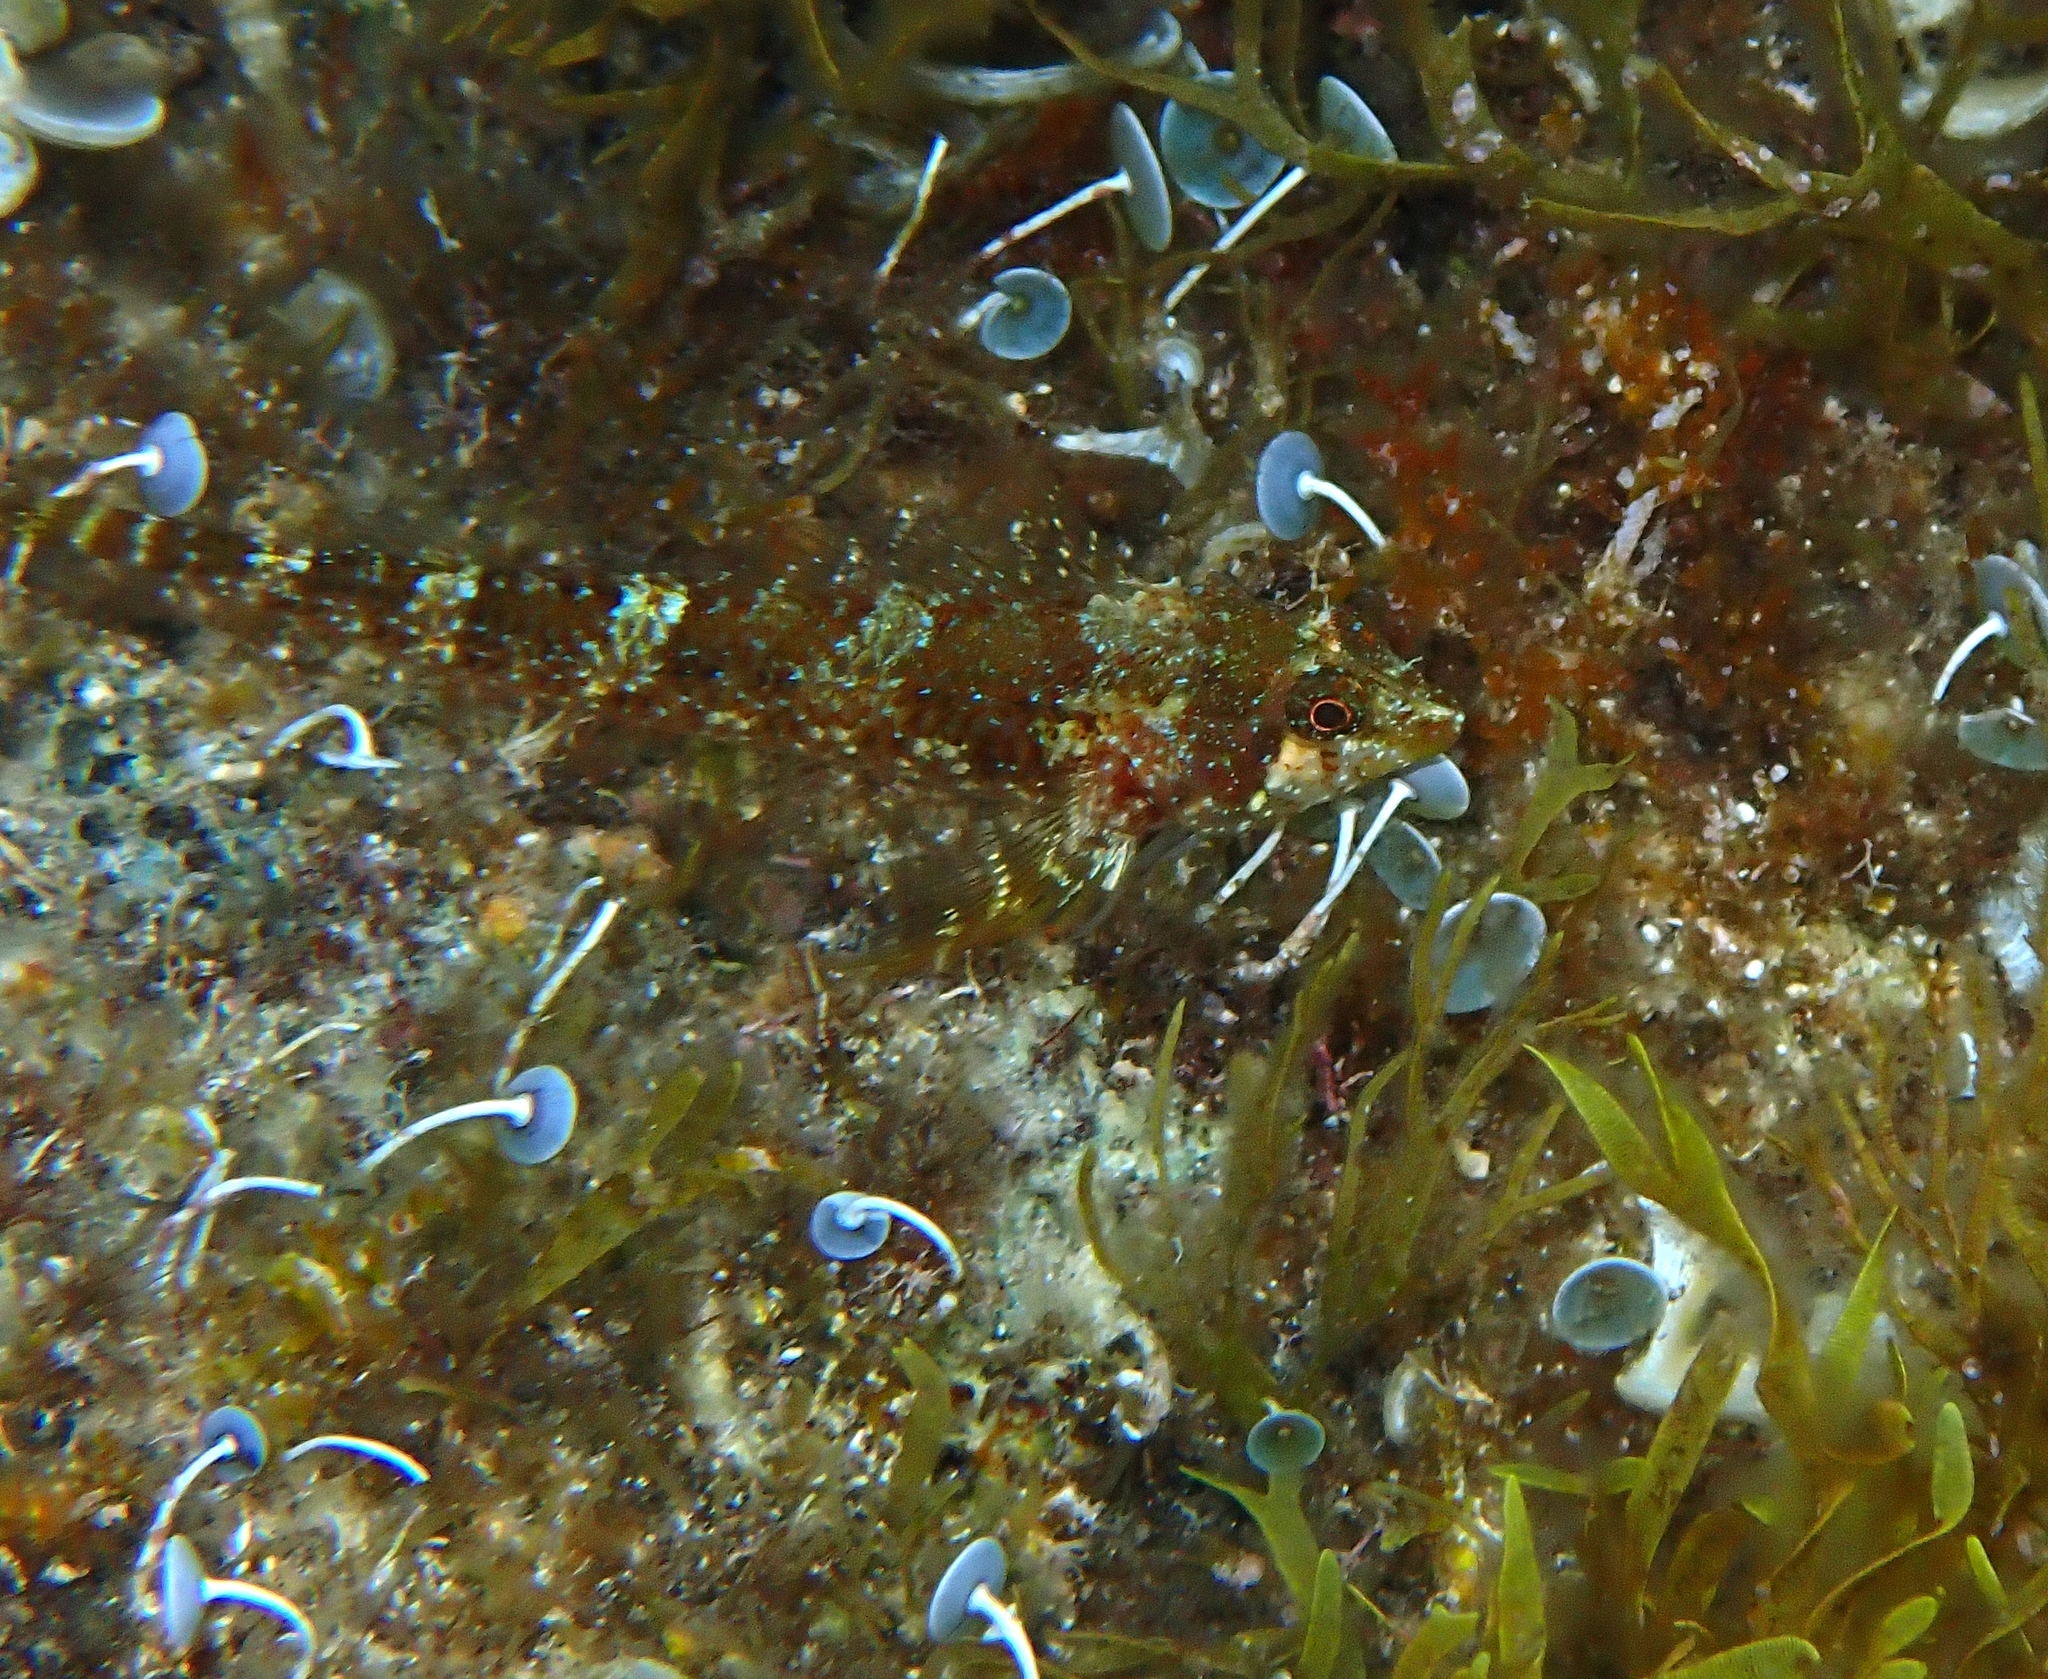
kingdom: Animalia
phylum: Chordata
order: Perciformes
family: Tripterygiidae
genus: Tripterygion
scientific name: Tripterygion tripteronotum
